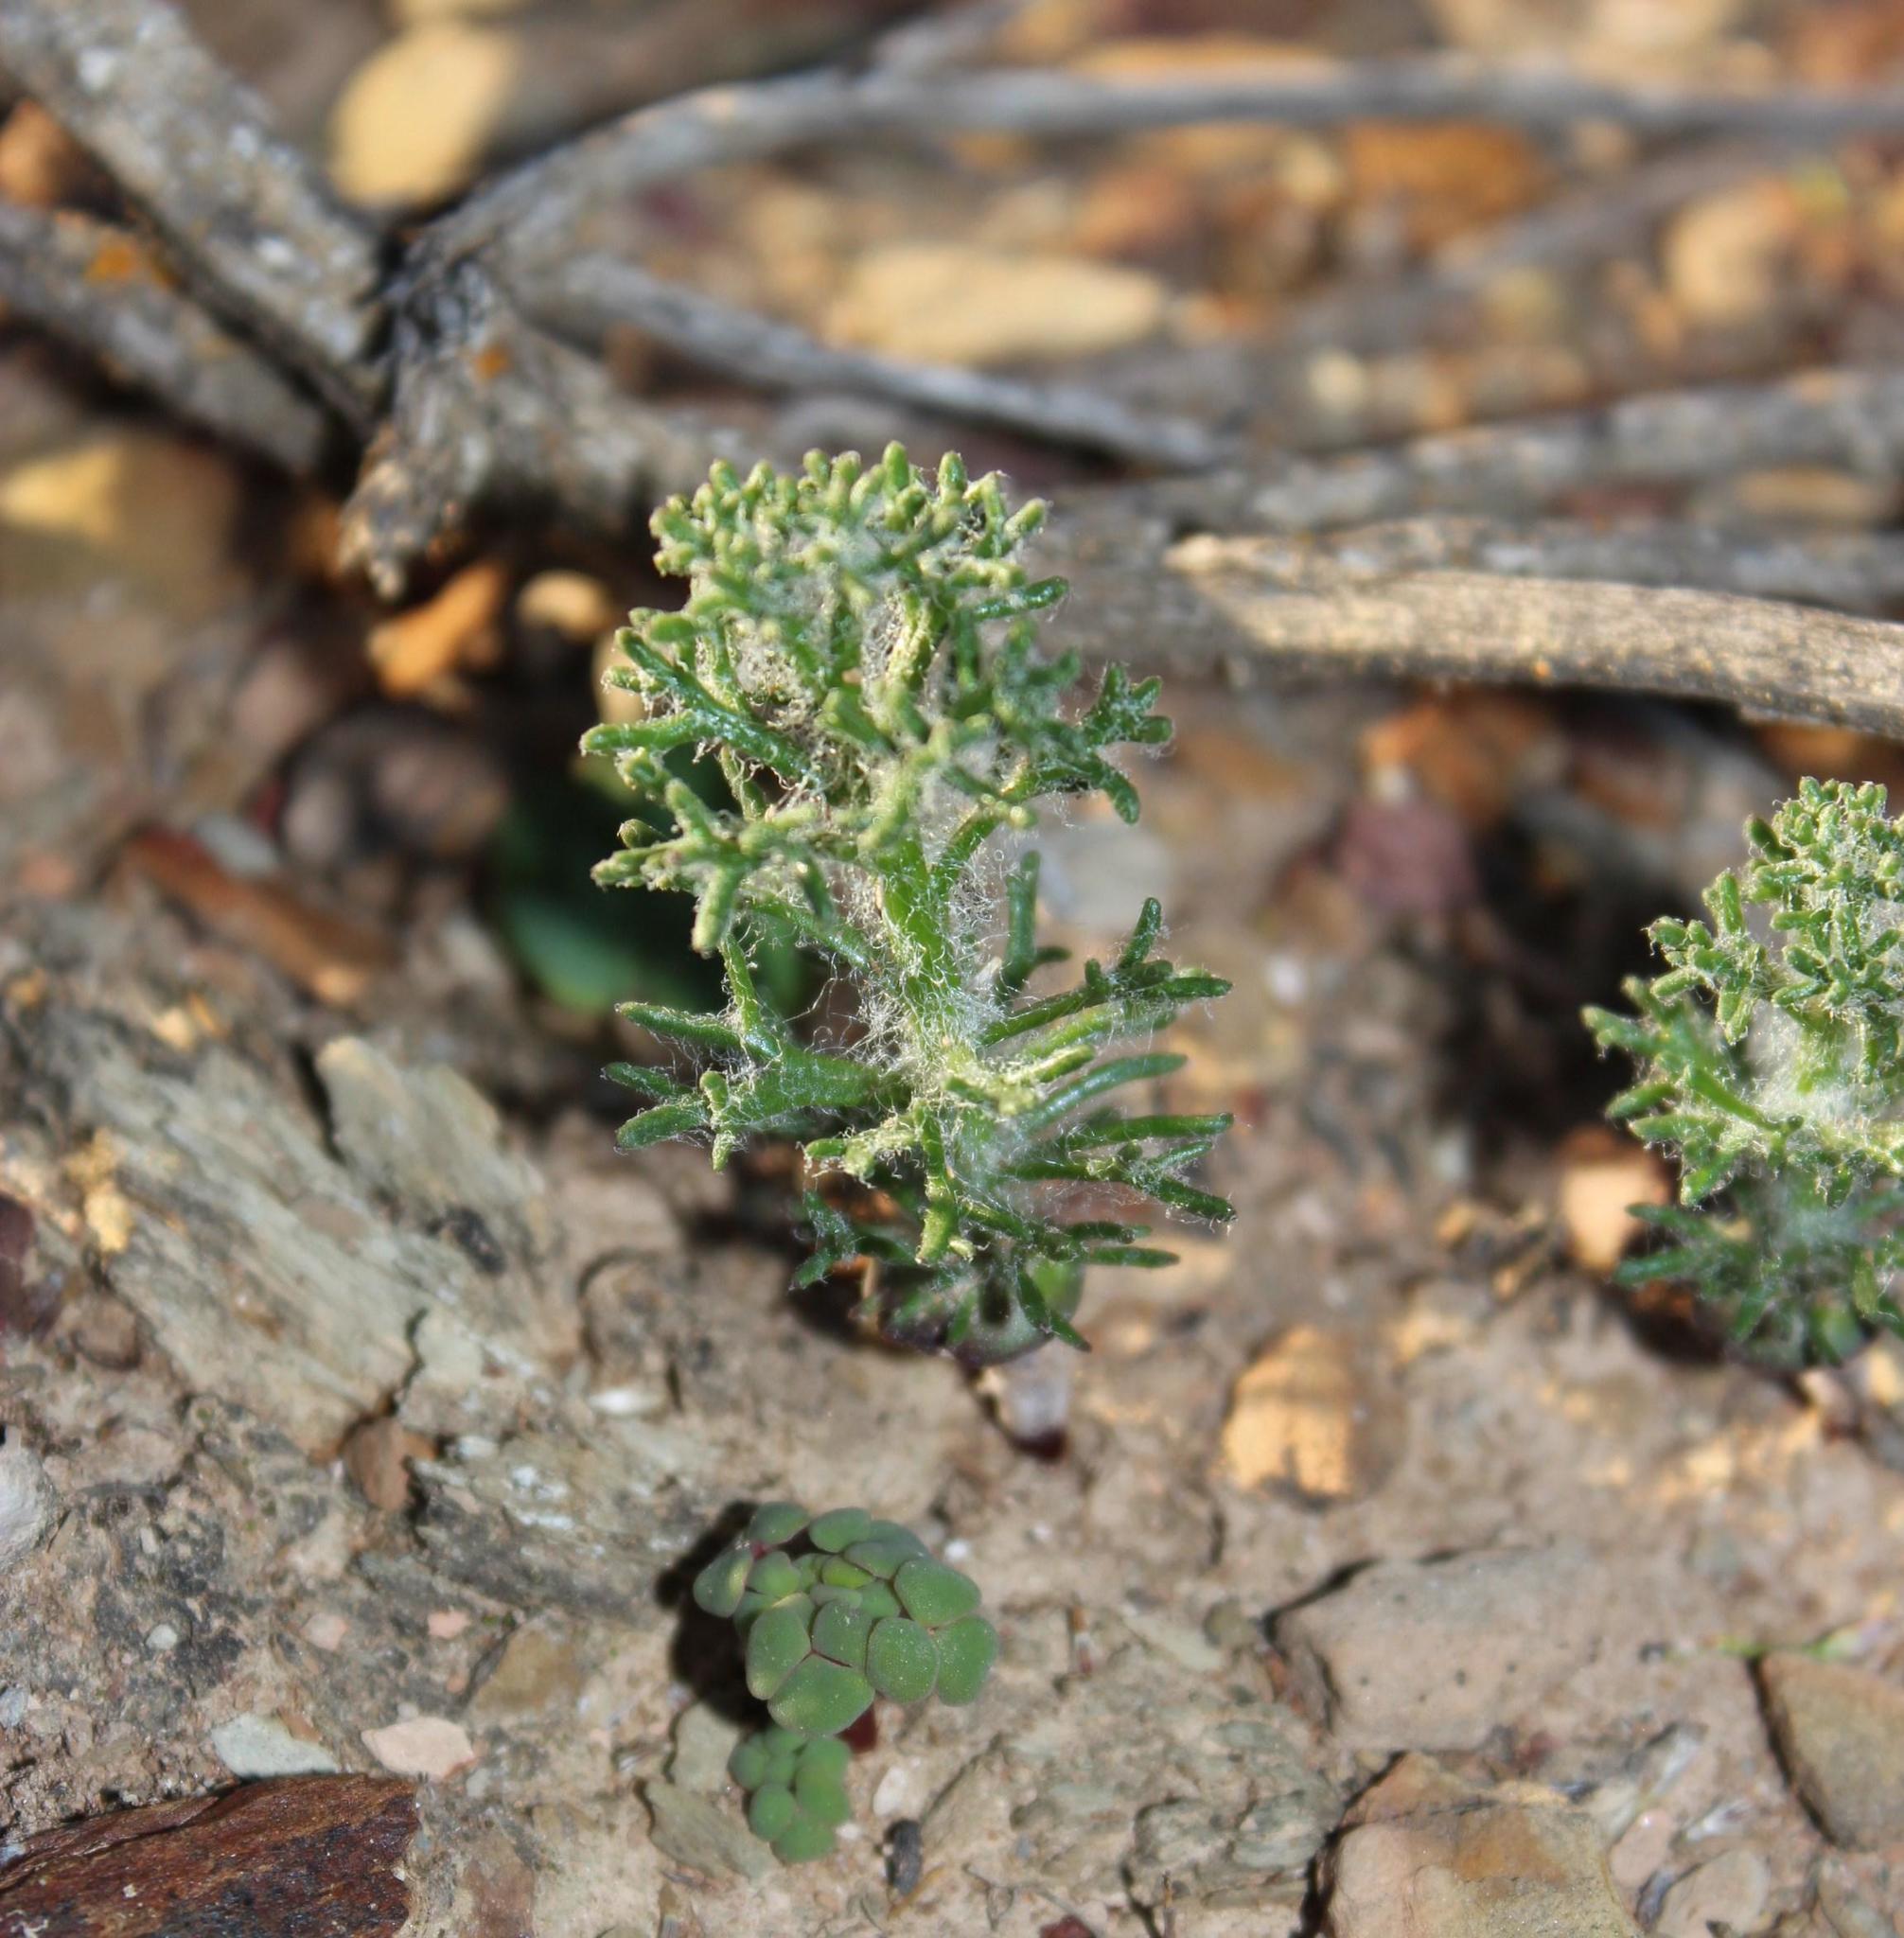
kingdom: Plantae
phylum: Tracheophyta
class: Liliopsida
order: Asparagales
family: Asparagaceae
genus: Eriospermum
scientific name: Eriospermum paradoxum
